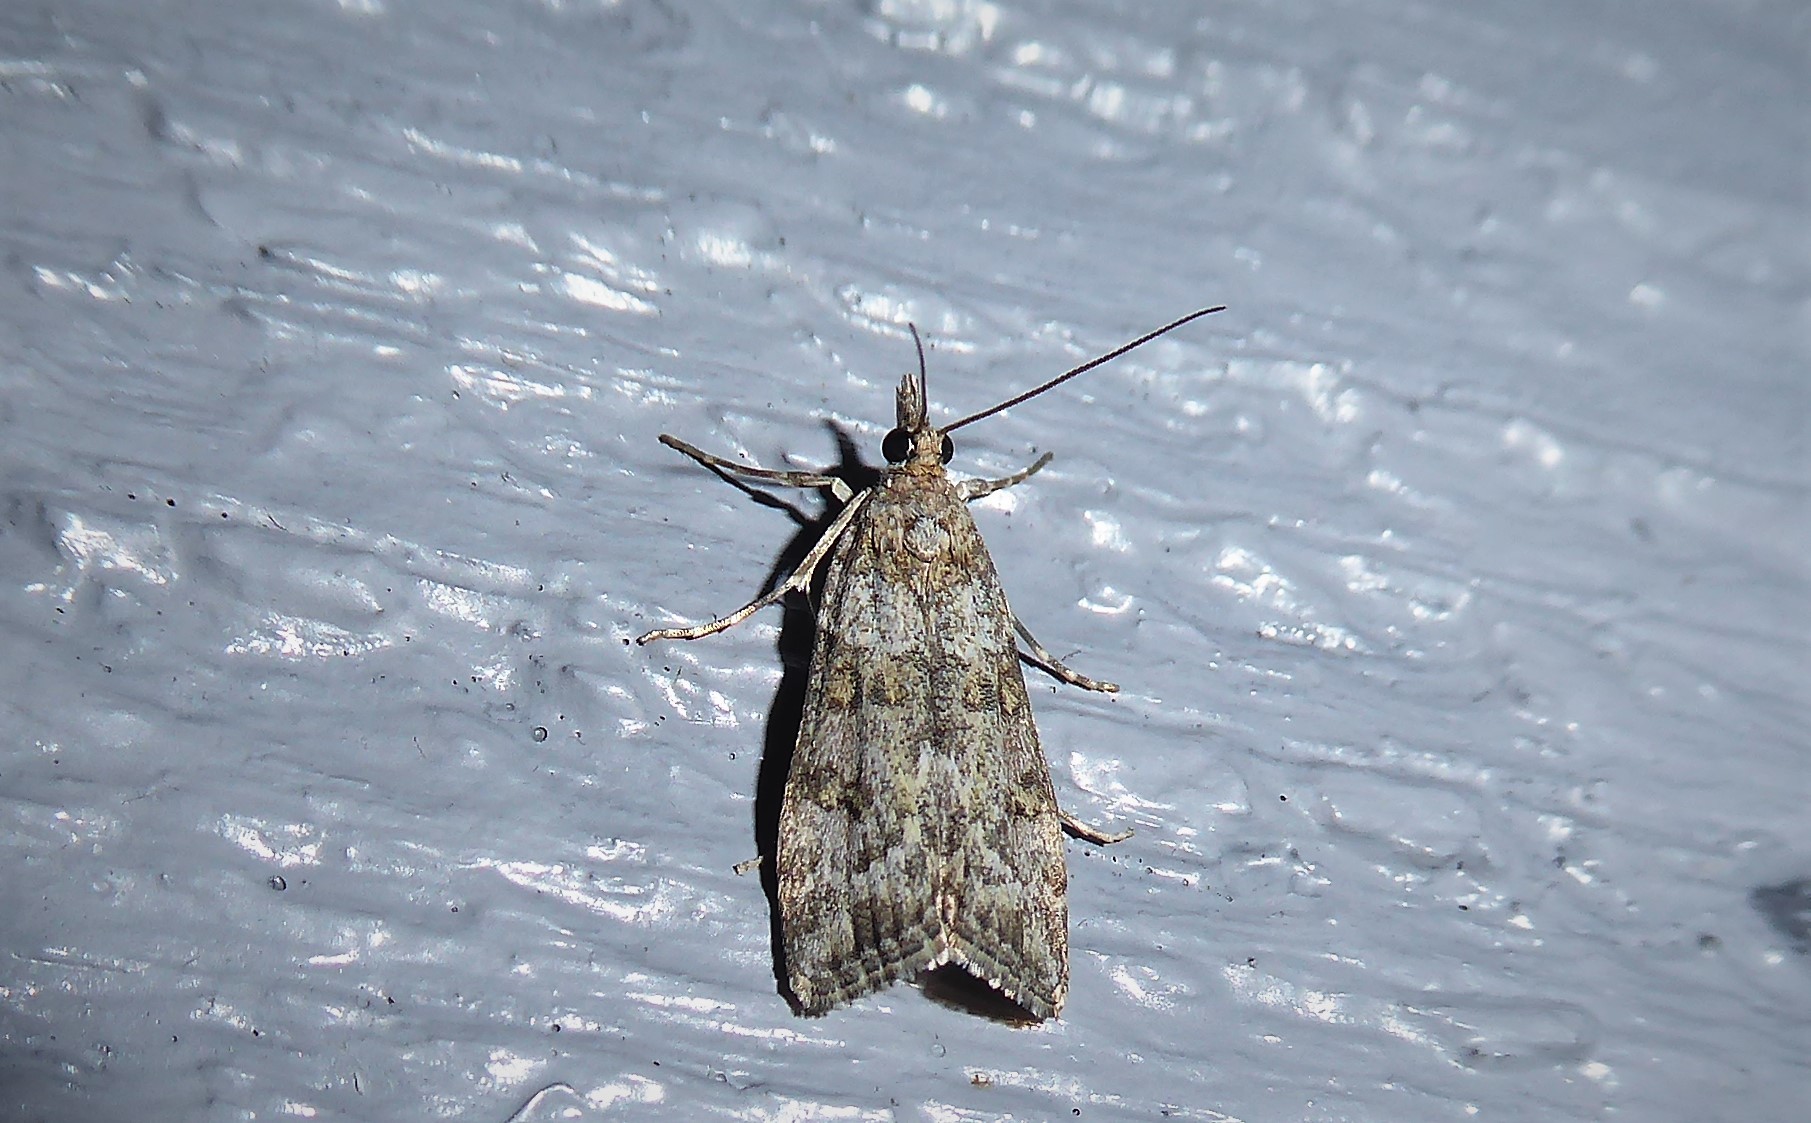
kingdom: Animalia
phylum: Arthropoda
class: Insecta
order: Lepidoptera
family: Crambidae
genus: Eudonia
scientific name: Eudonia diphtheralis
